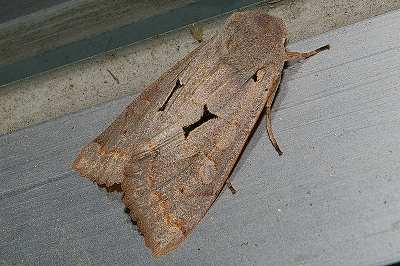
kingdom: Animalia
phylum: Arthropoda
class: Insecta
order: Lepidoptera
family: Noctuidae
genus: Orthosia
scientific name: Orthosia carnipennis
